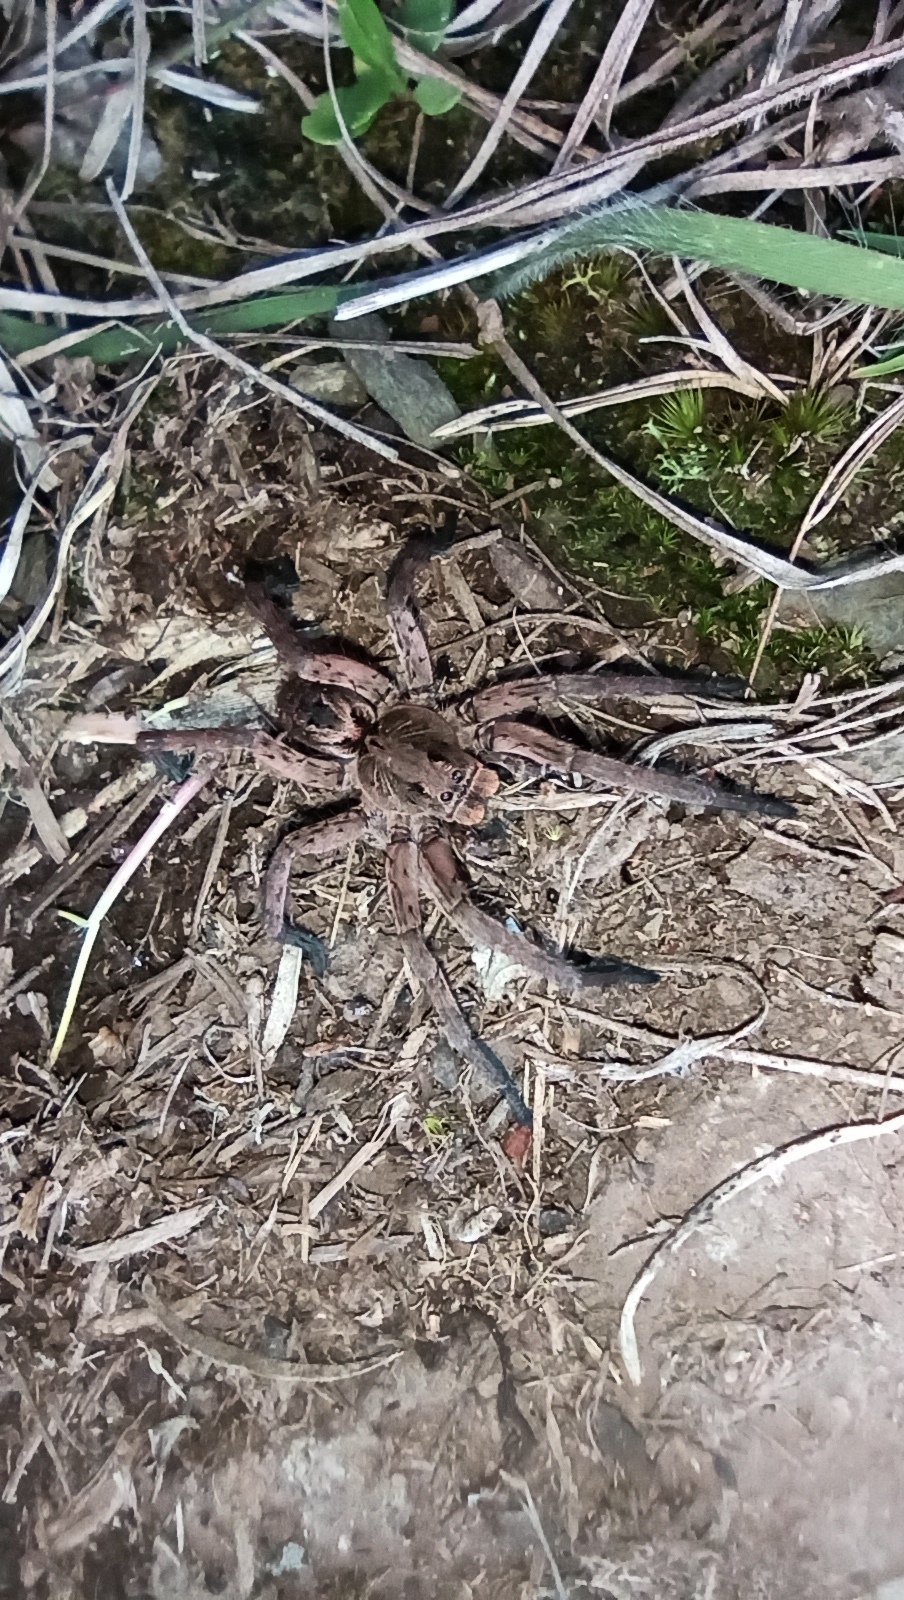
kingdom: Animalia
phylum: Arthropoda
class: Arachnida
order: Araneae
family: Lycosidae
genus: Lycosa
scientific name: Lycosa erythrognatha
